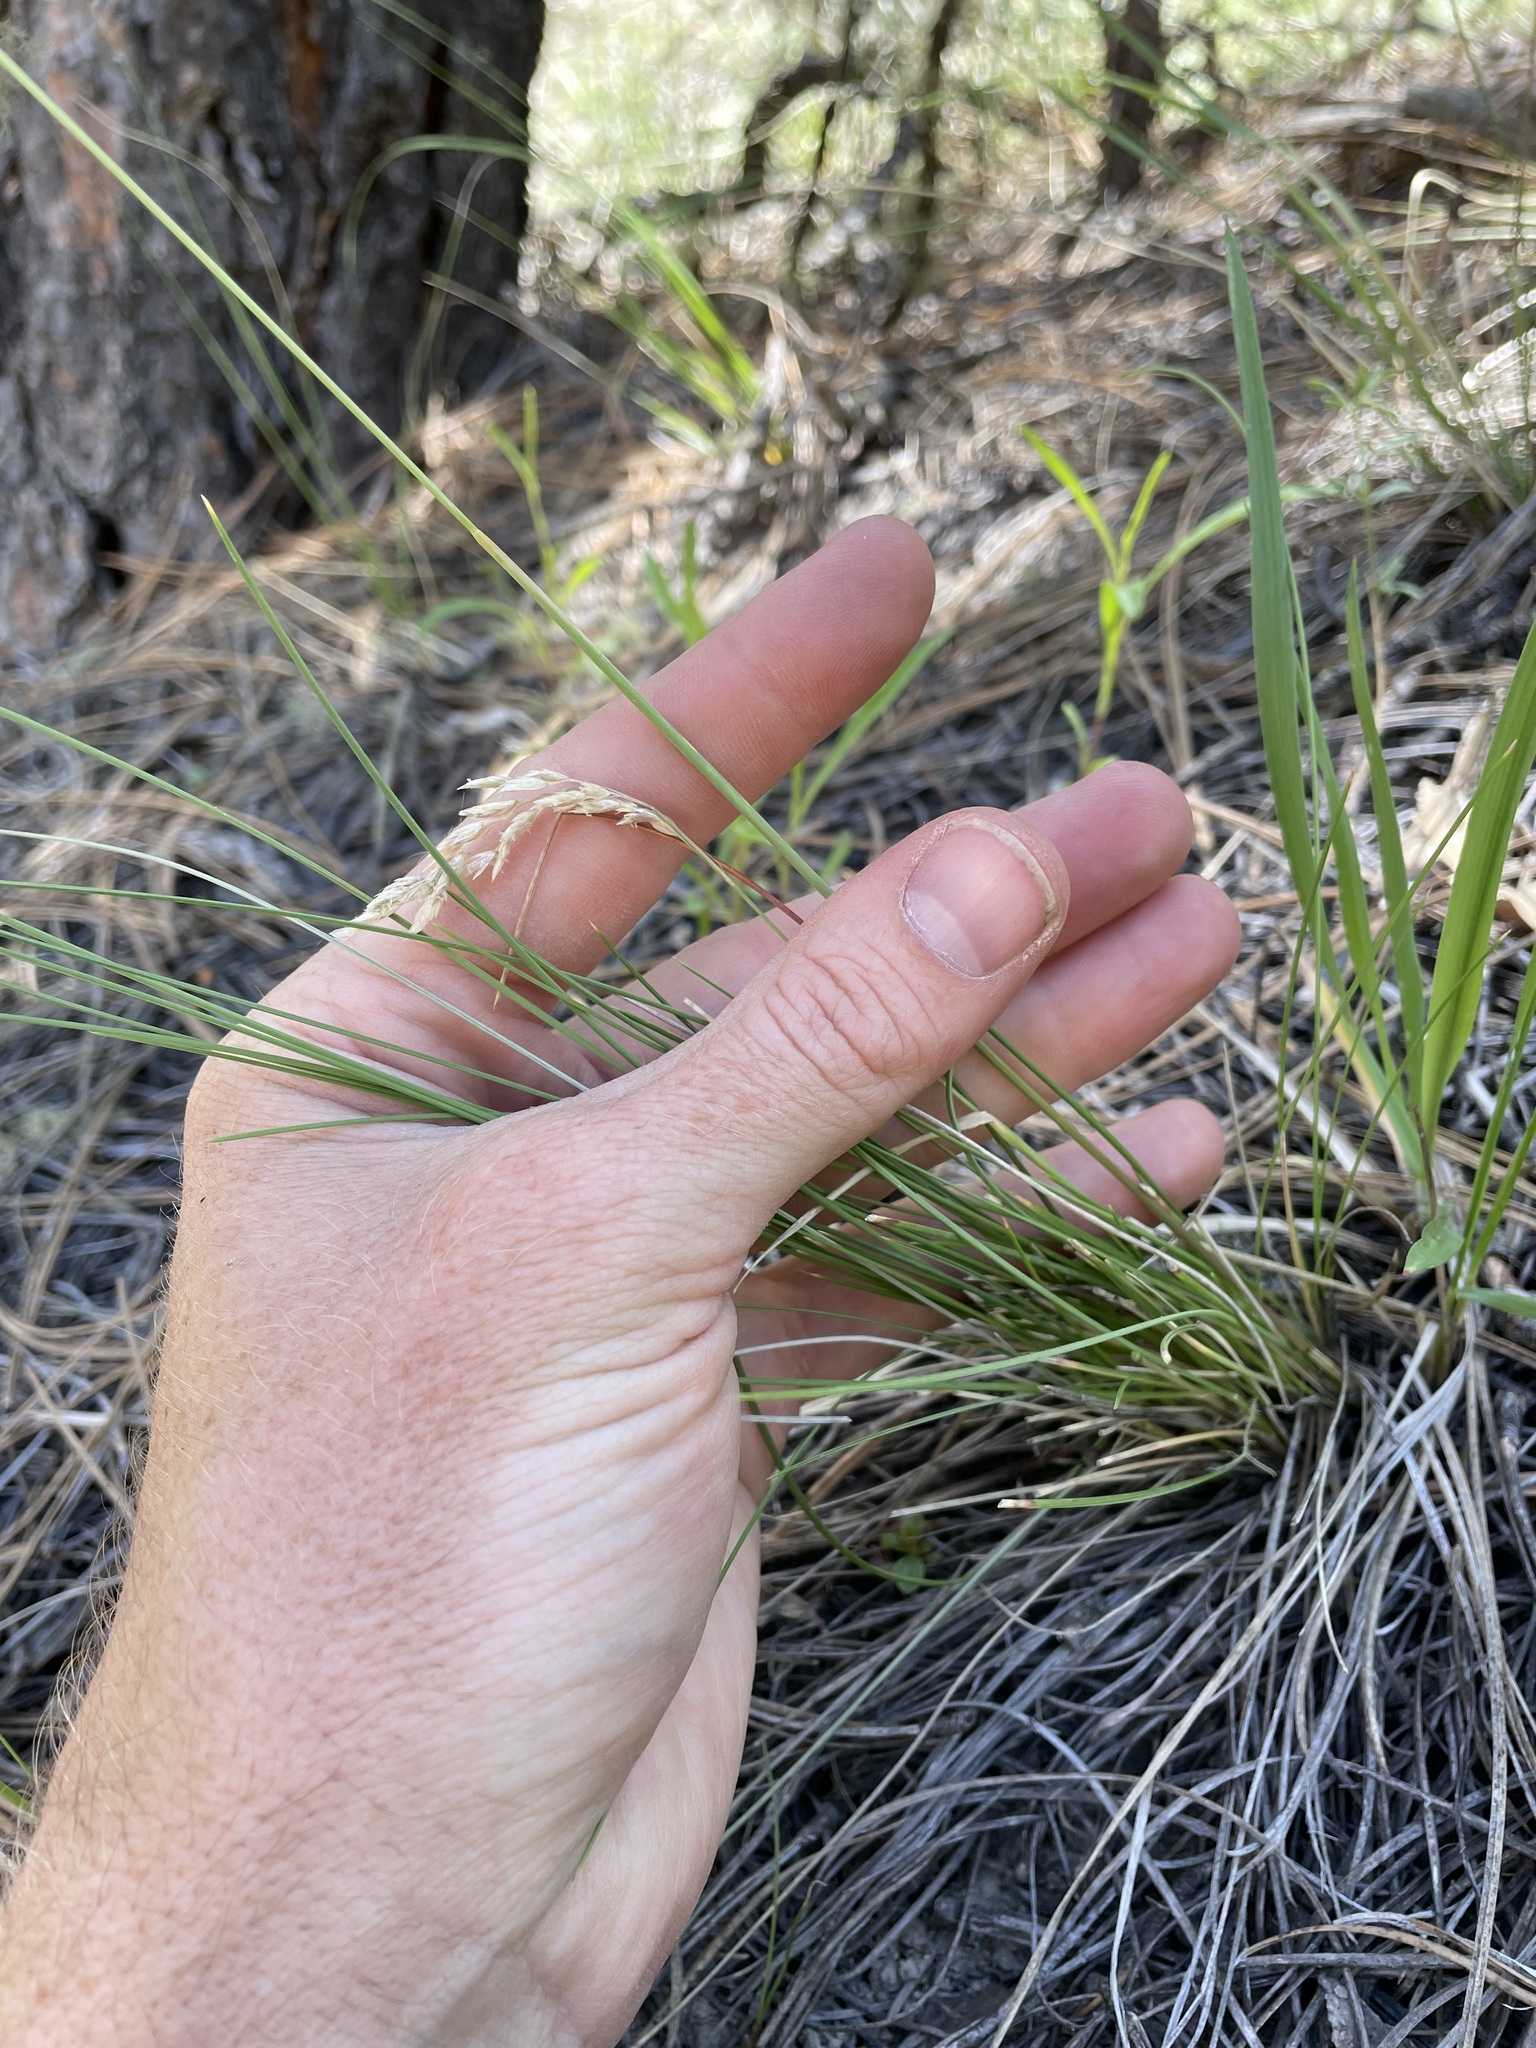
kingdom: Plantae
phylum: Tracheophyta
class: Liliopsida
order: Poales
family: Poaceae
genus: Poa
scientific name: Poa fendleriana
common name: Mutton bluegrass
